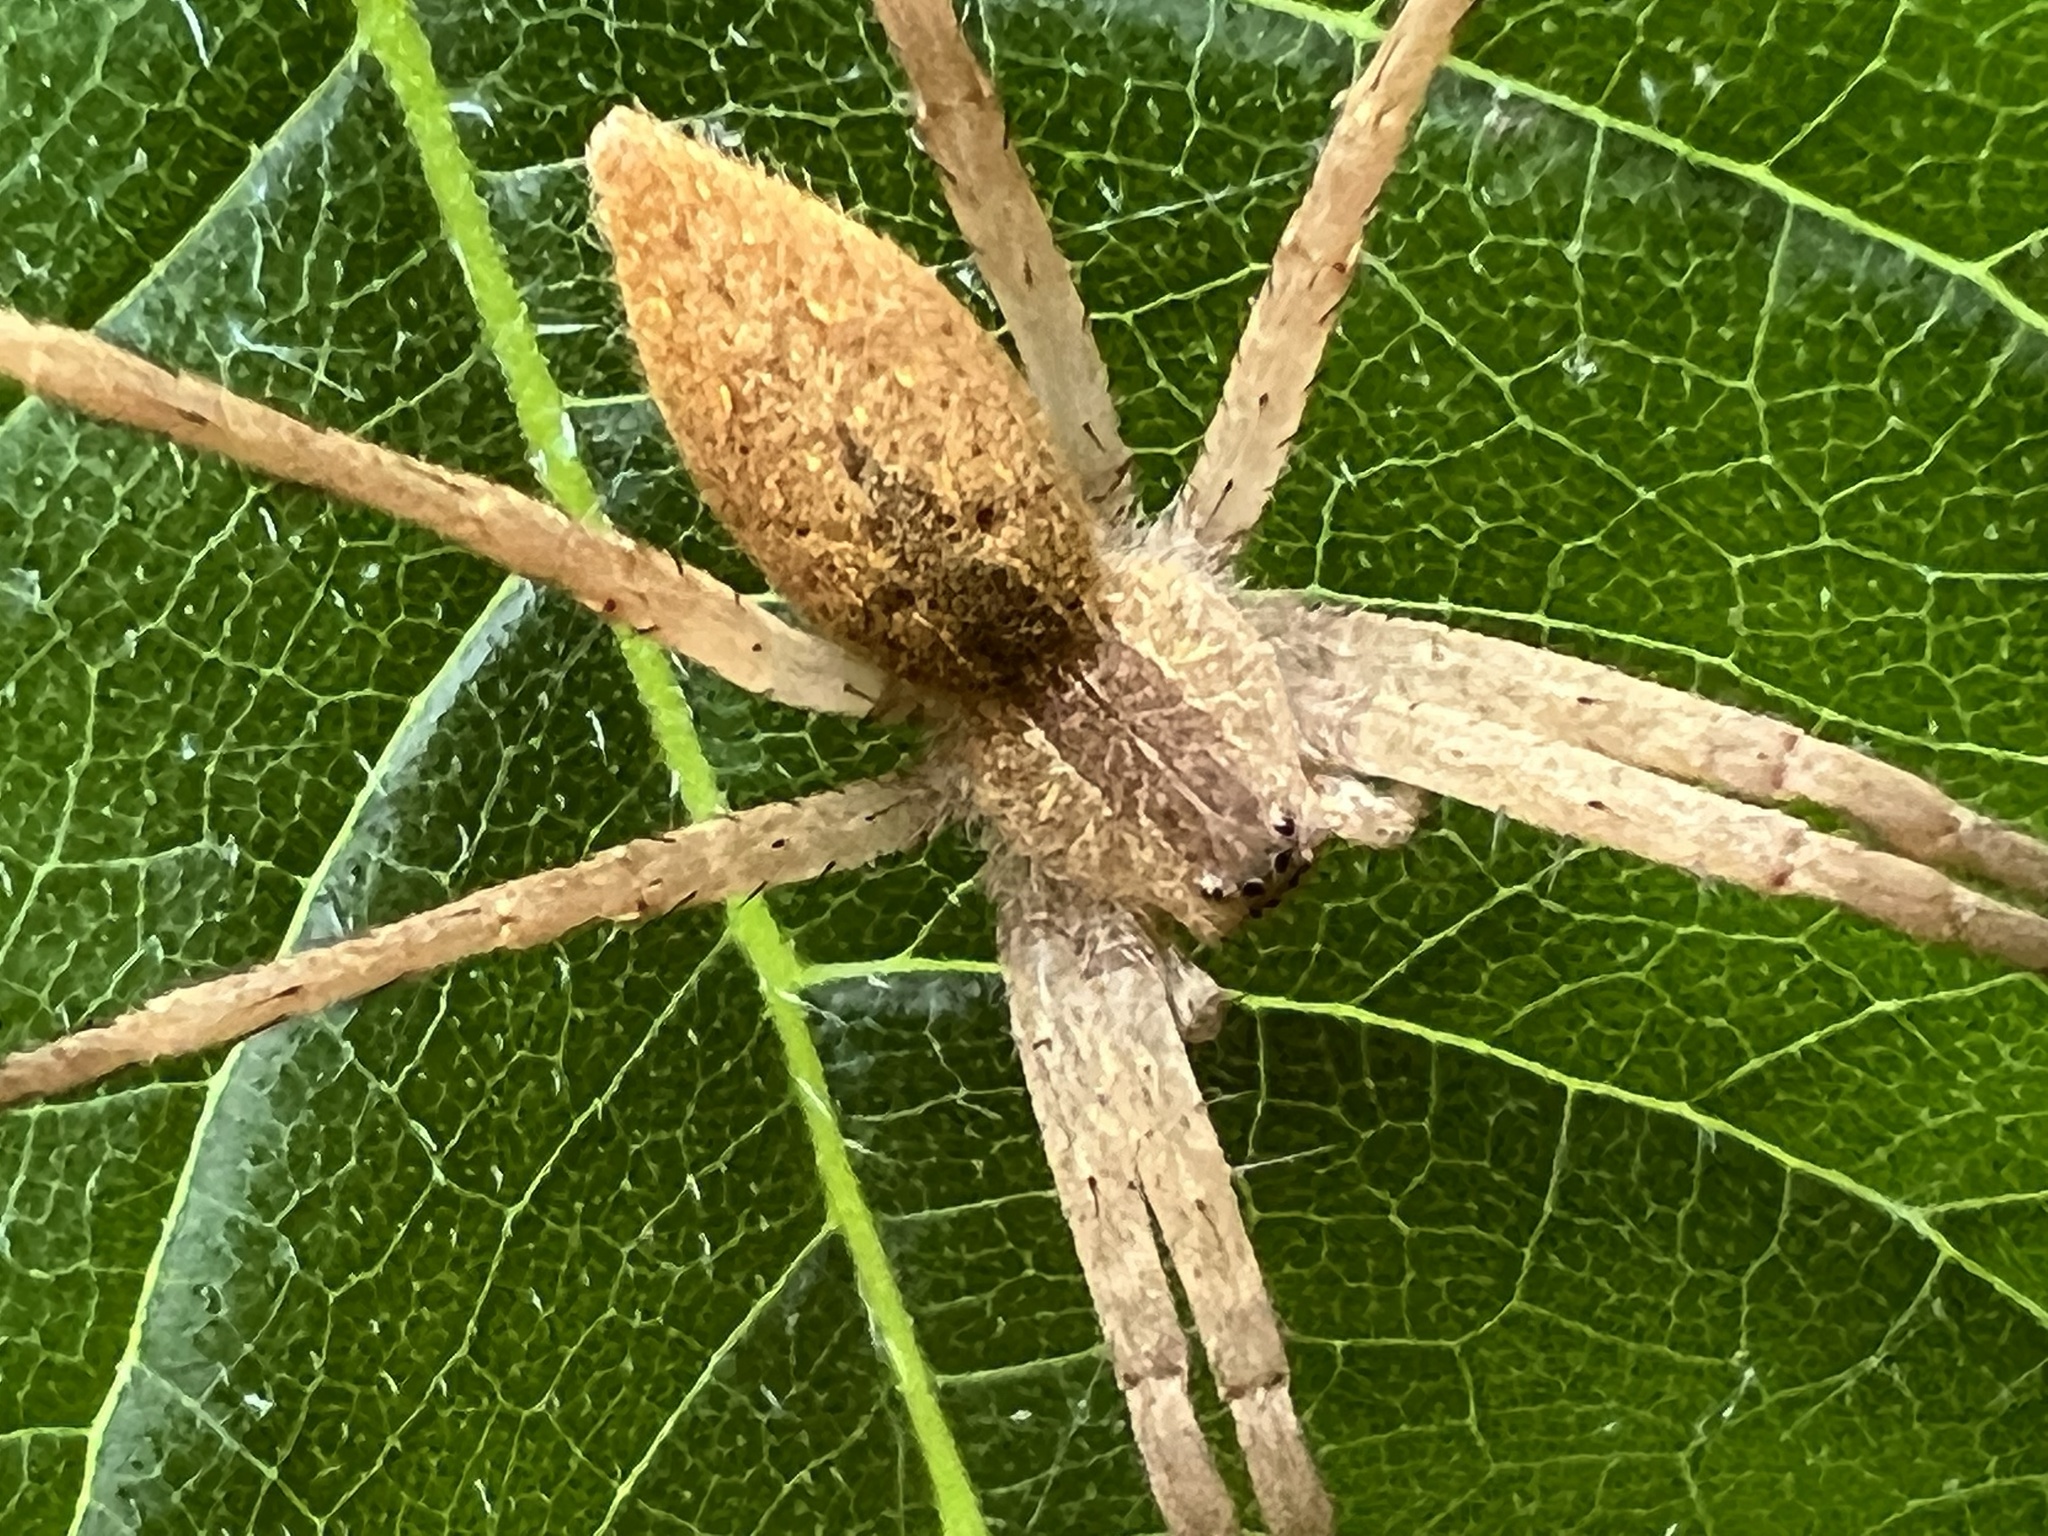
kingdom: Animalia
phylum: Arthropoda
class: Arachnida
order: Araneae
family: Pisauridae
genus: Pisaurina
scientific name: Pisaurina mira
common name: American nursery web spider
